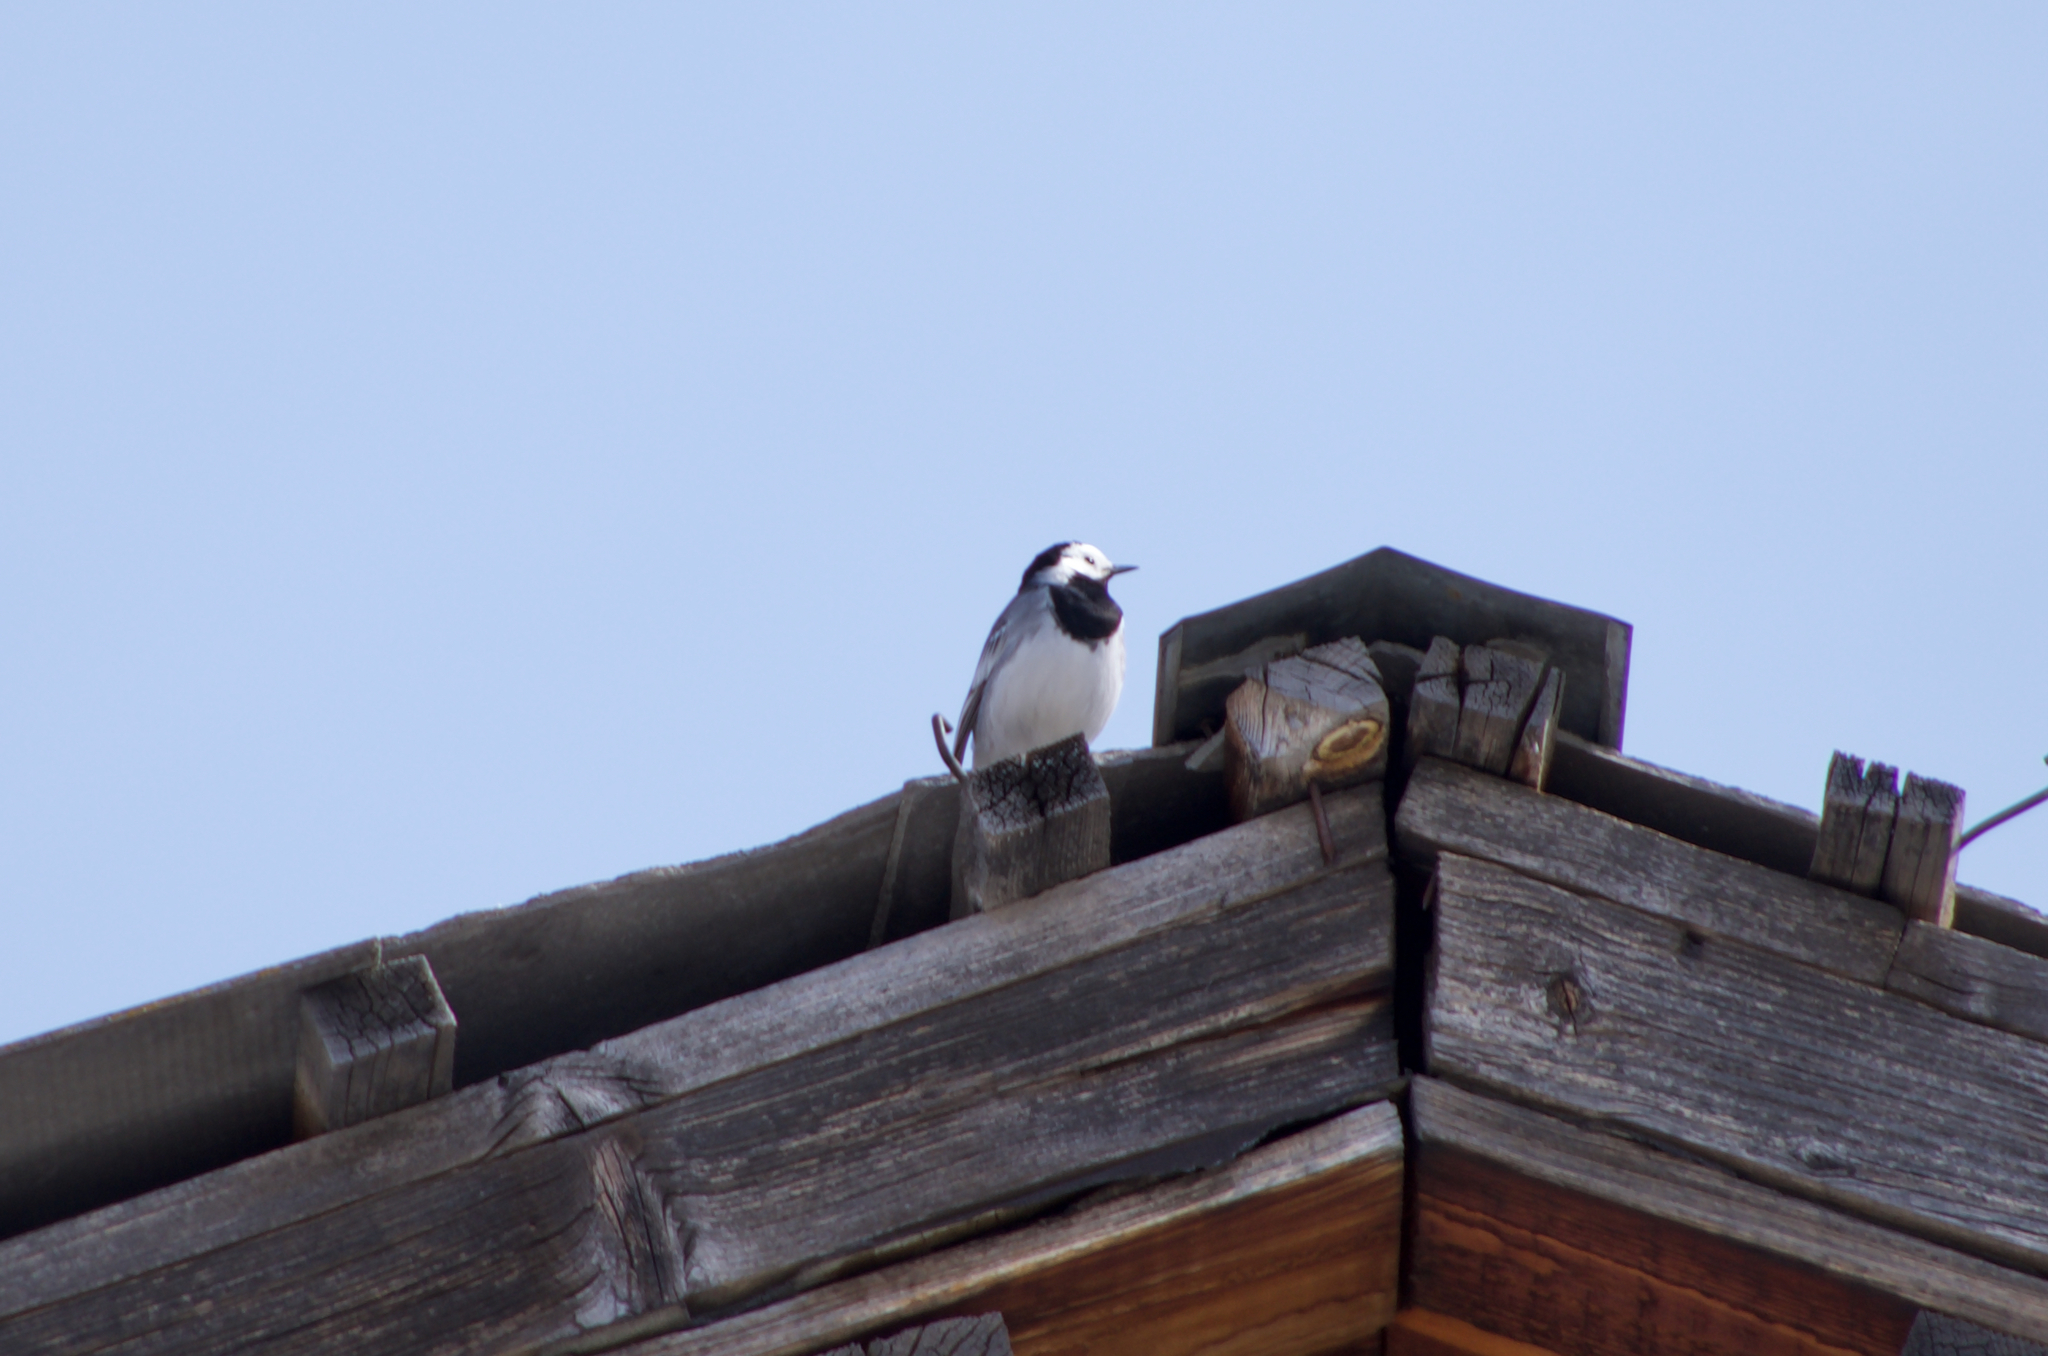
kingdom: Animalia
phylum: Chordata
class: Aves
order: Passeriformes
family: Motacillidae
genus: Motacilla
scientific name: Motacilla alba
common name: White wagtail
